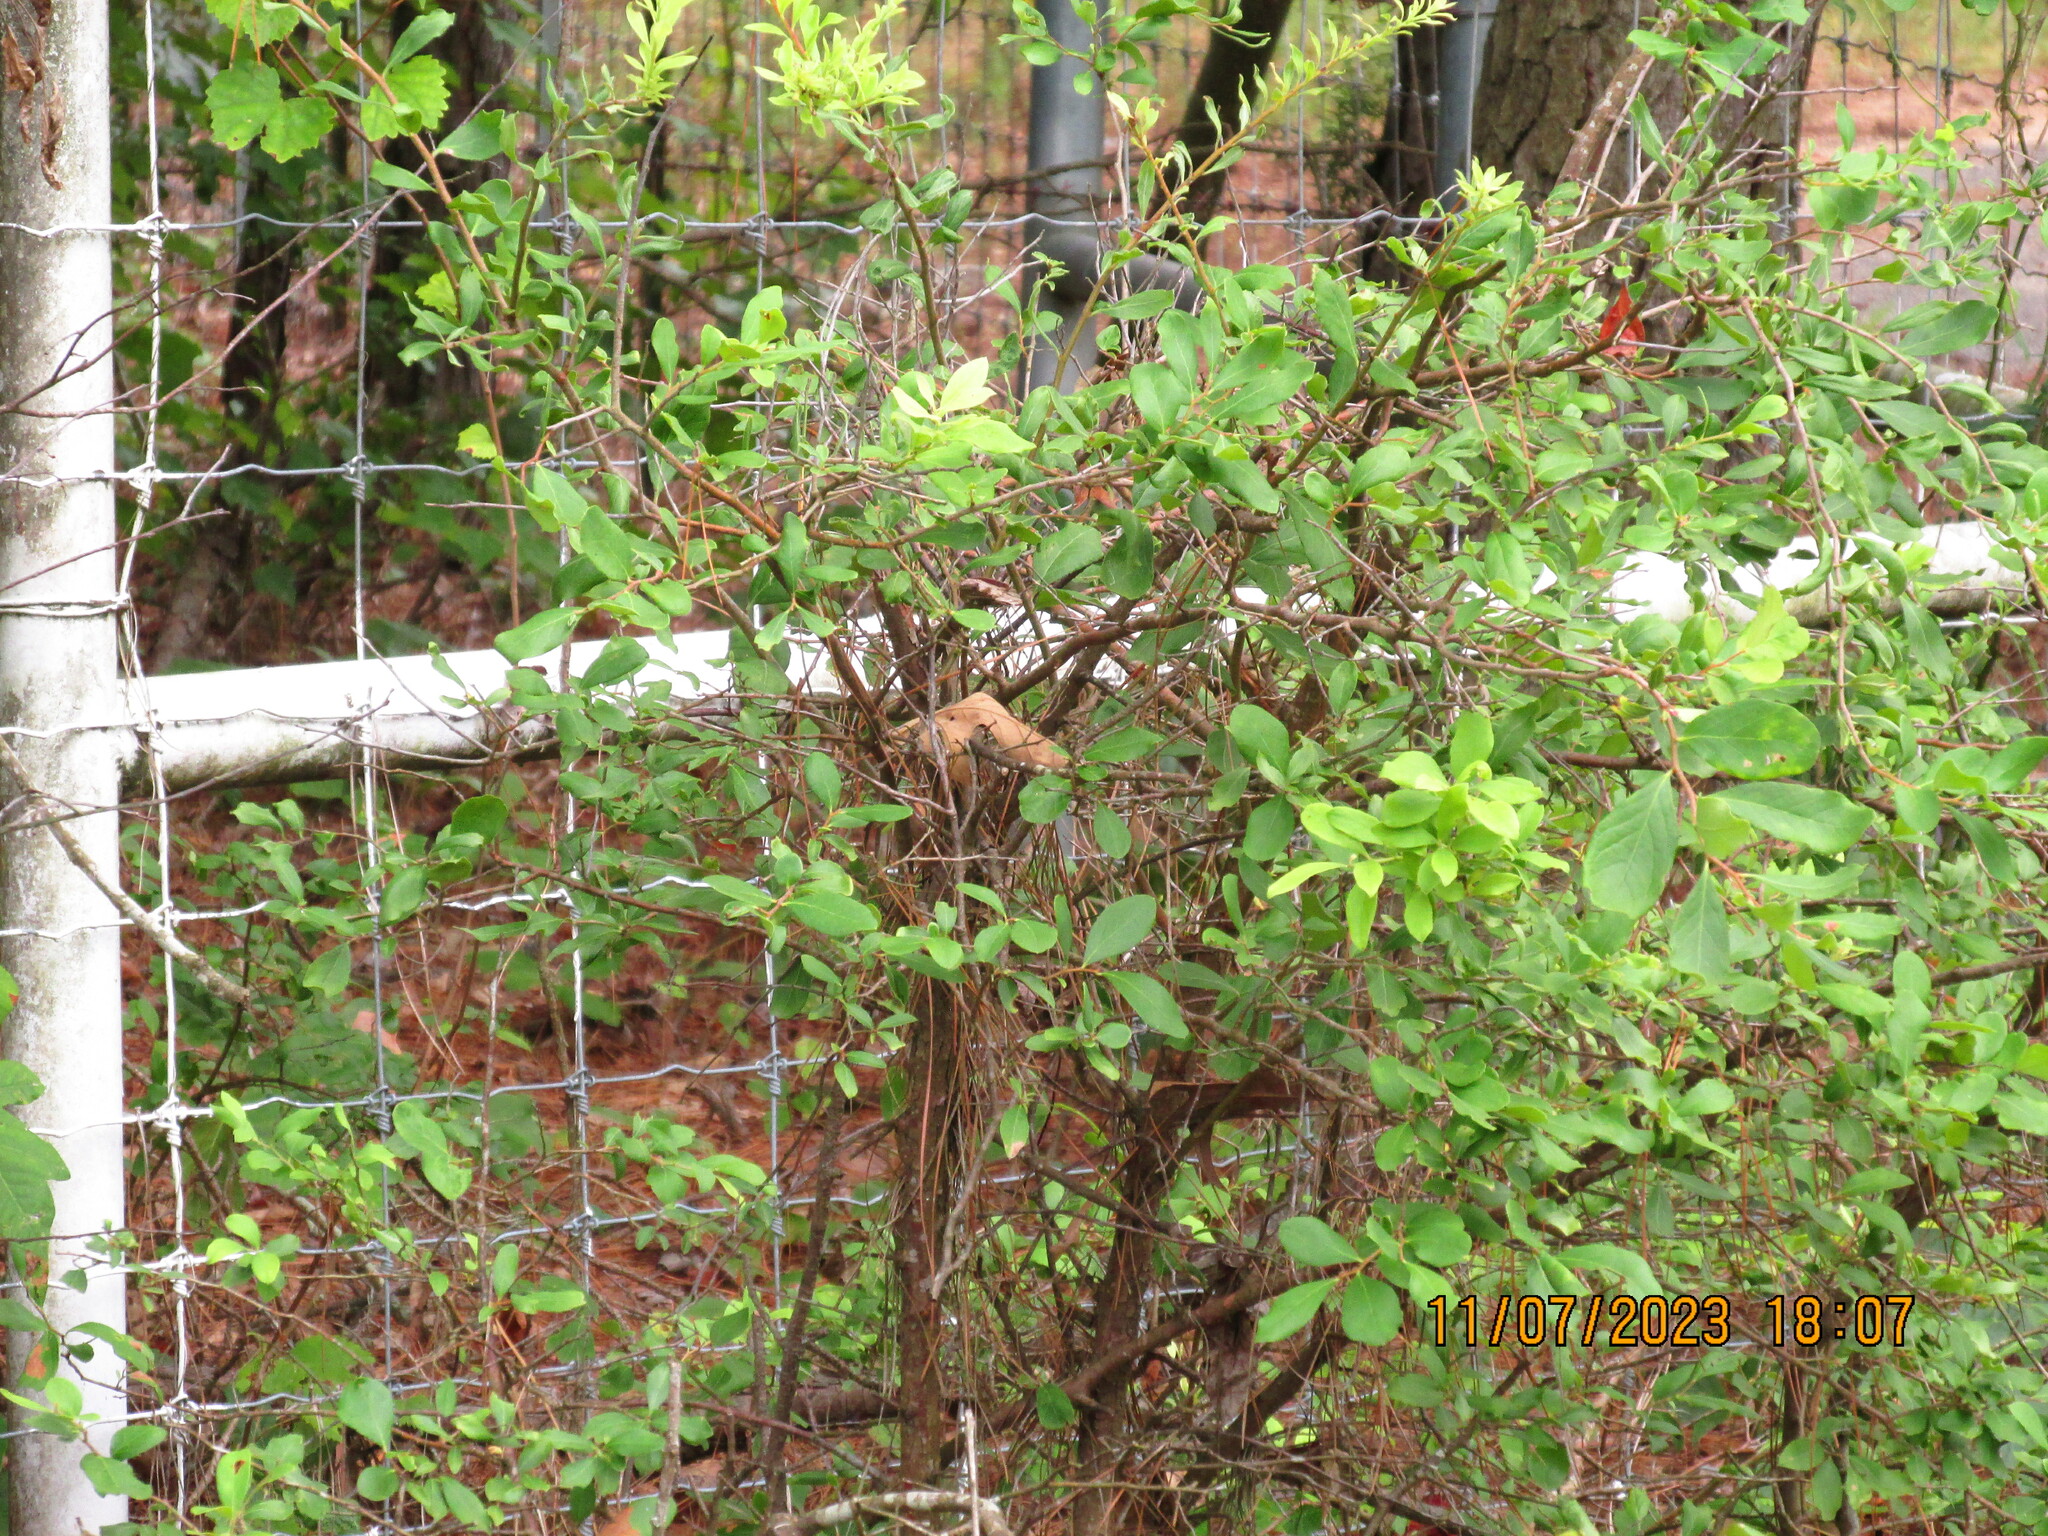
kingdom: Plantae
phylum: Tracheophyta
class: Magnoliopsida
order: Ericales
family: Ericaceae
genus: Vaccinium
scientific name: Vaccinium arboreum
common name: Farkleberry
